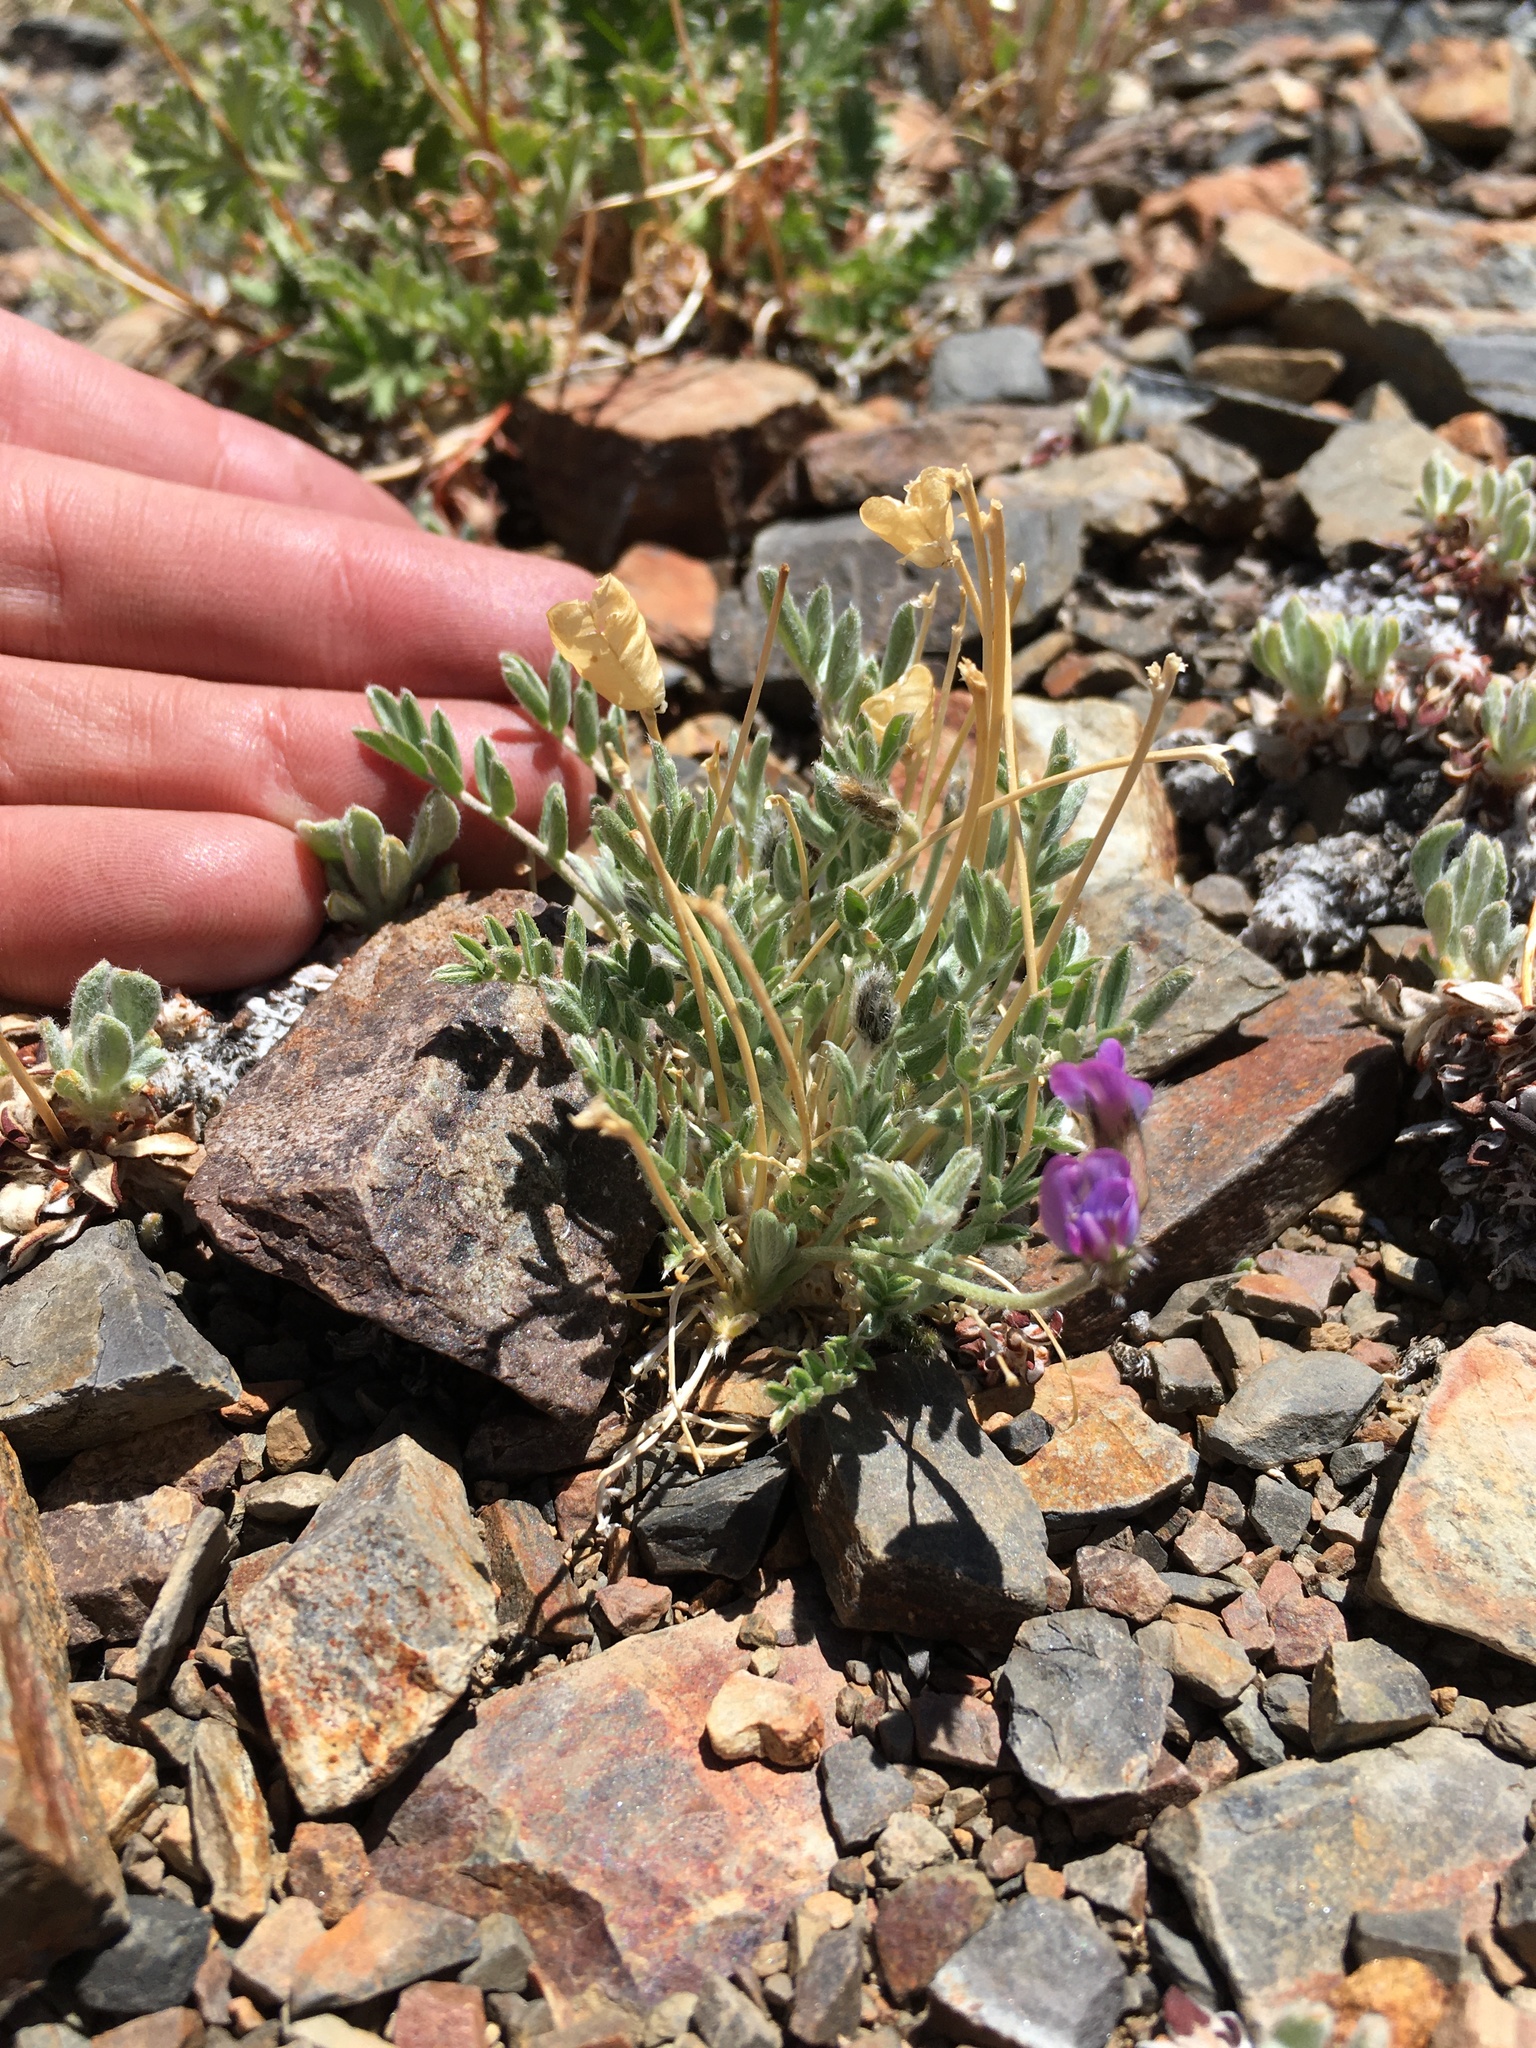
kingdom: Plantae
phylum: Tracheophyta
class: Magnoliopsida
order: Fabales
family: Fabaceae
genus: Oxytropis
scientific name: Oxytropis parryi
